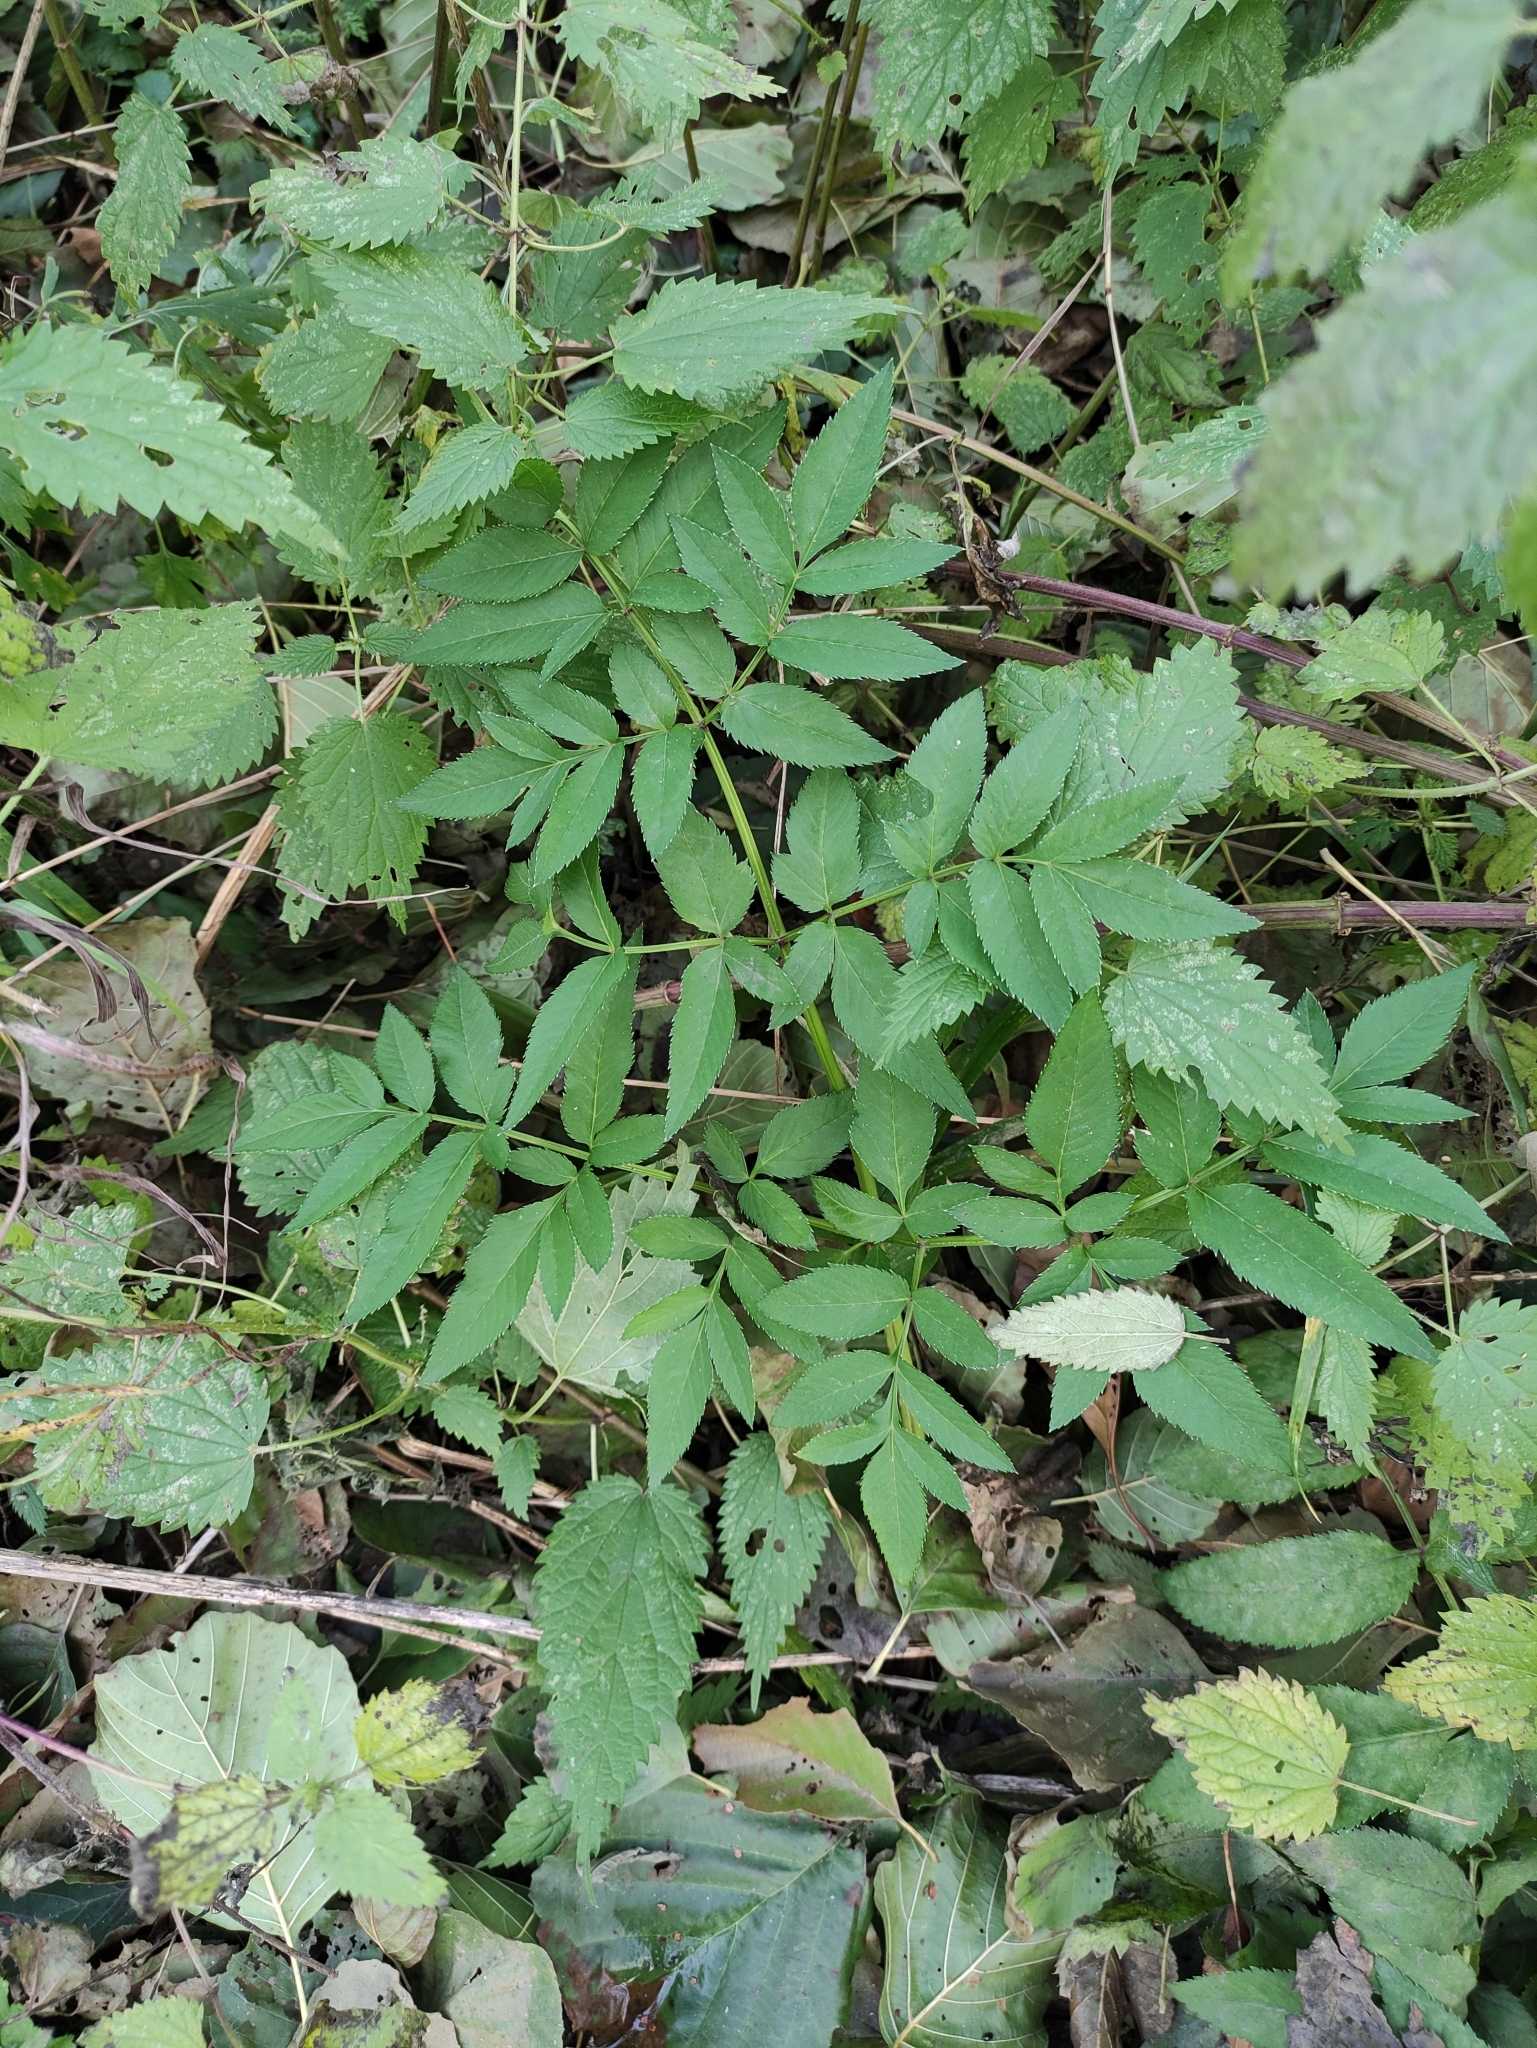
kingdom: Plantae
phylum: Tracheophyta
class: Magnoliopsida
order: Apiales
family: Apiaceae
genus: Angelica
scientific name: Angelica sylvestris
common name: Wild angelica
